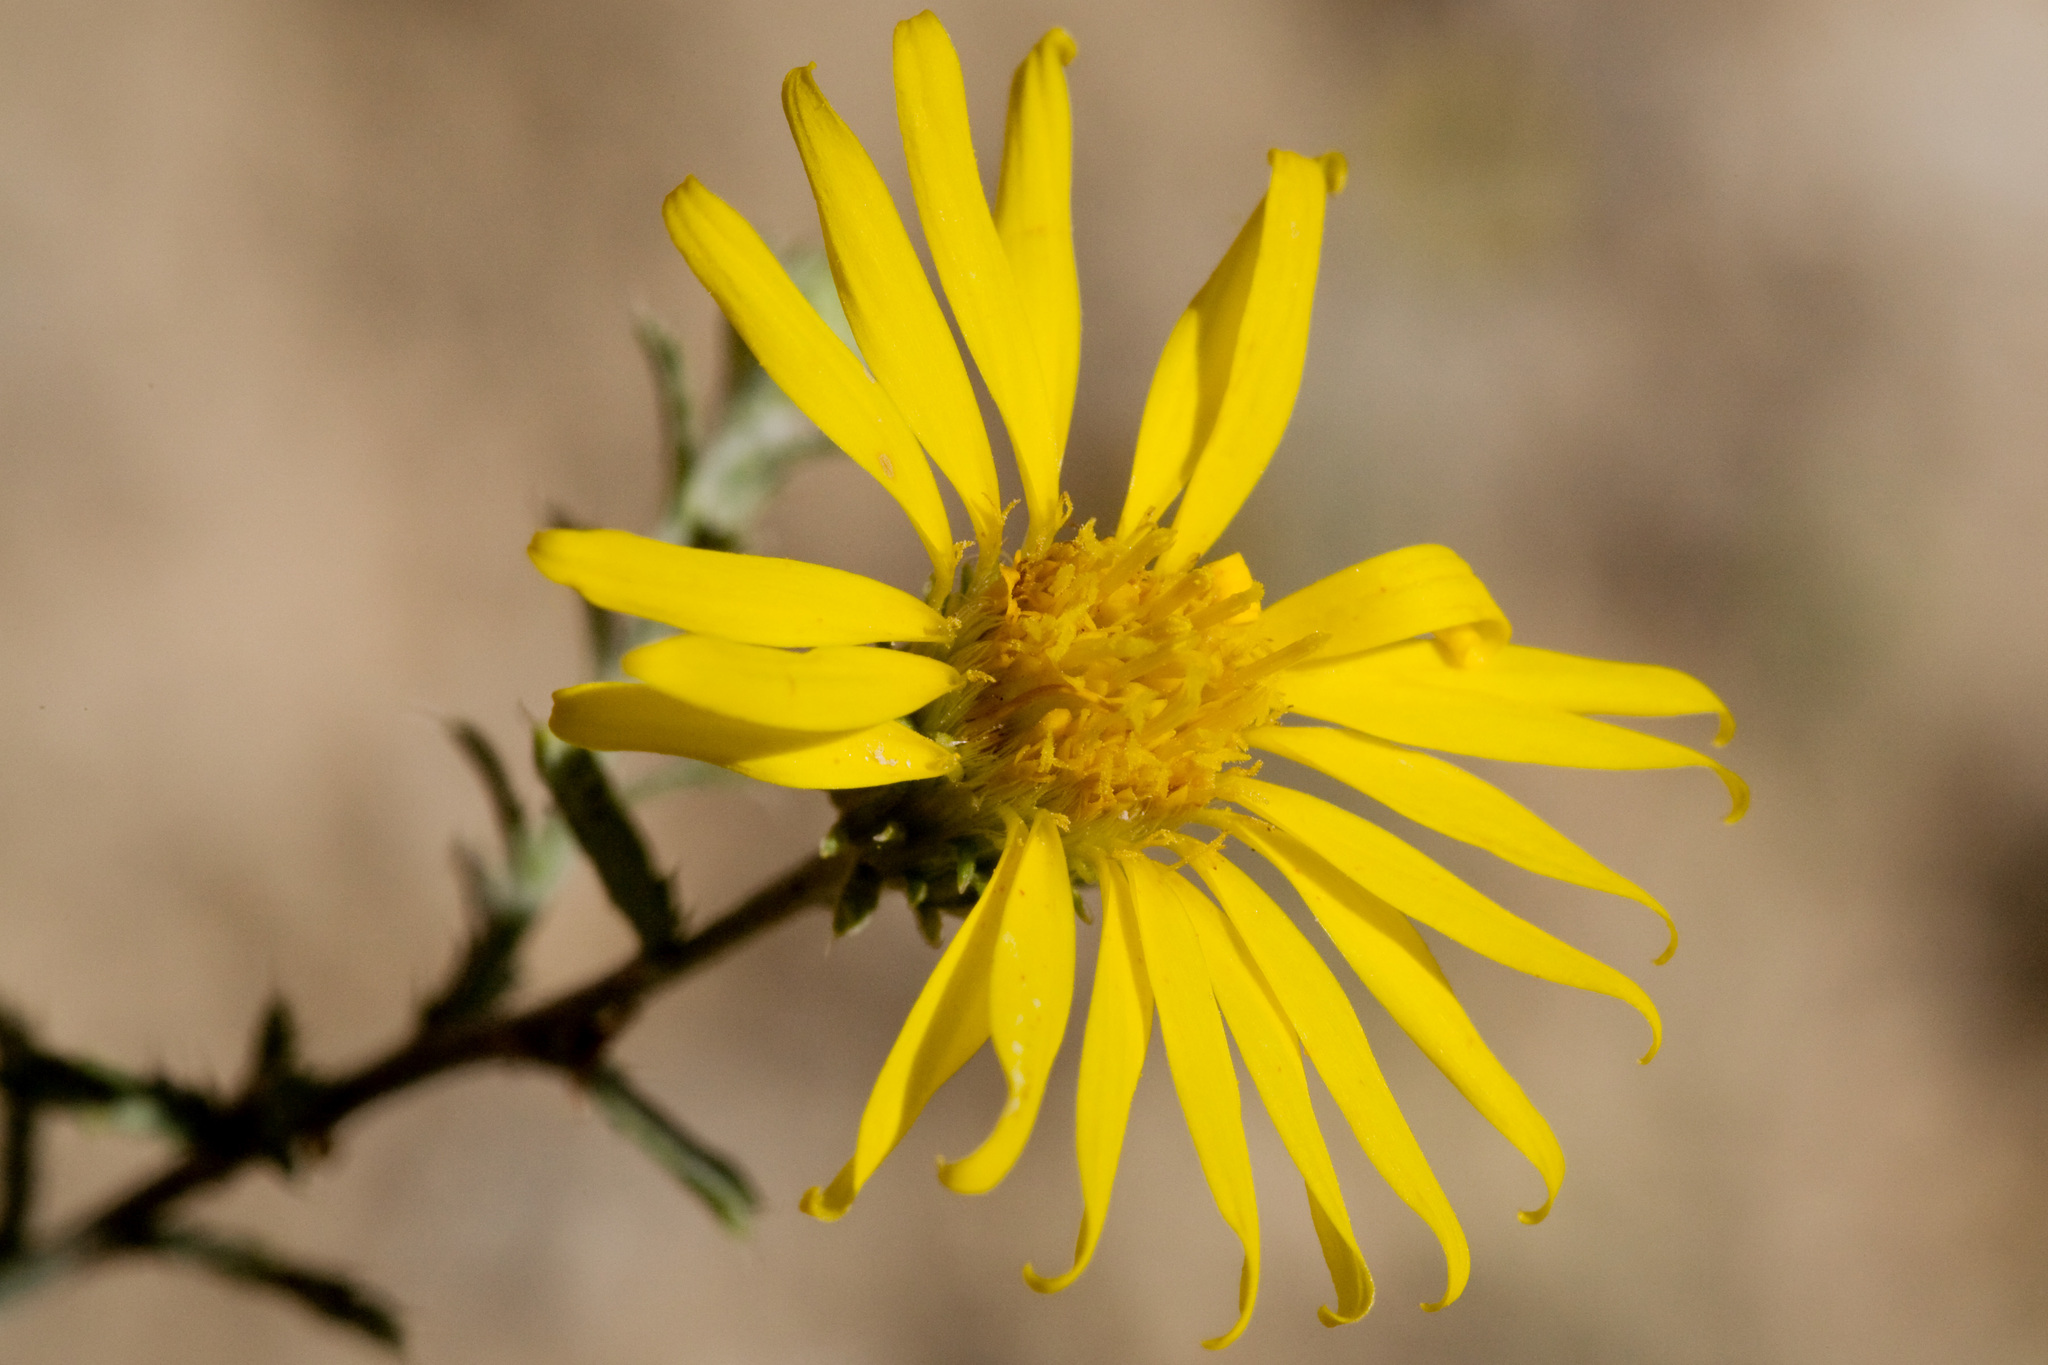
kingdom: Plantae
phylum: Tracheophyta
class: Magnoliopsida
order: Asterales
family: Asteraceae
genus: Xanthisma
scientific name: Xanthisma spinulosum
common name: Spiny goldenweed
